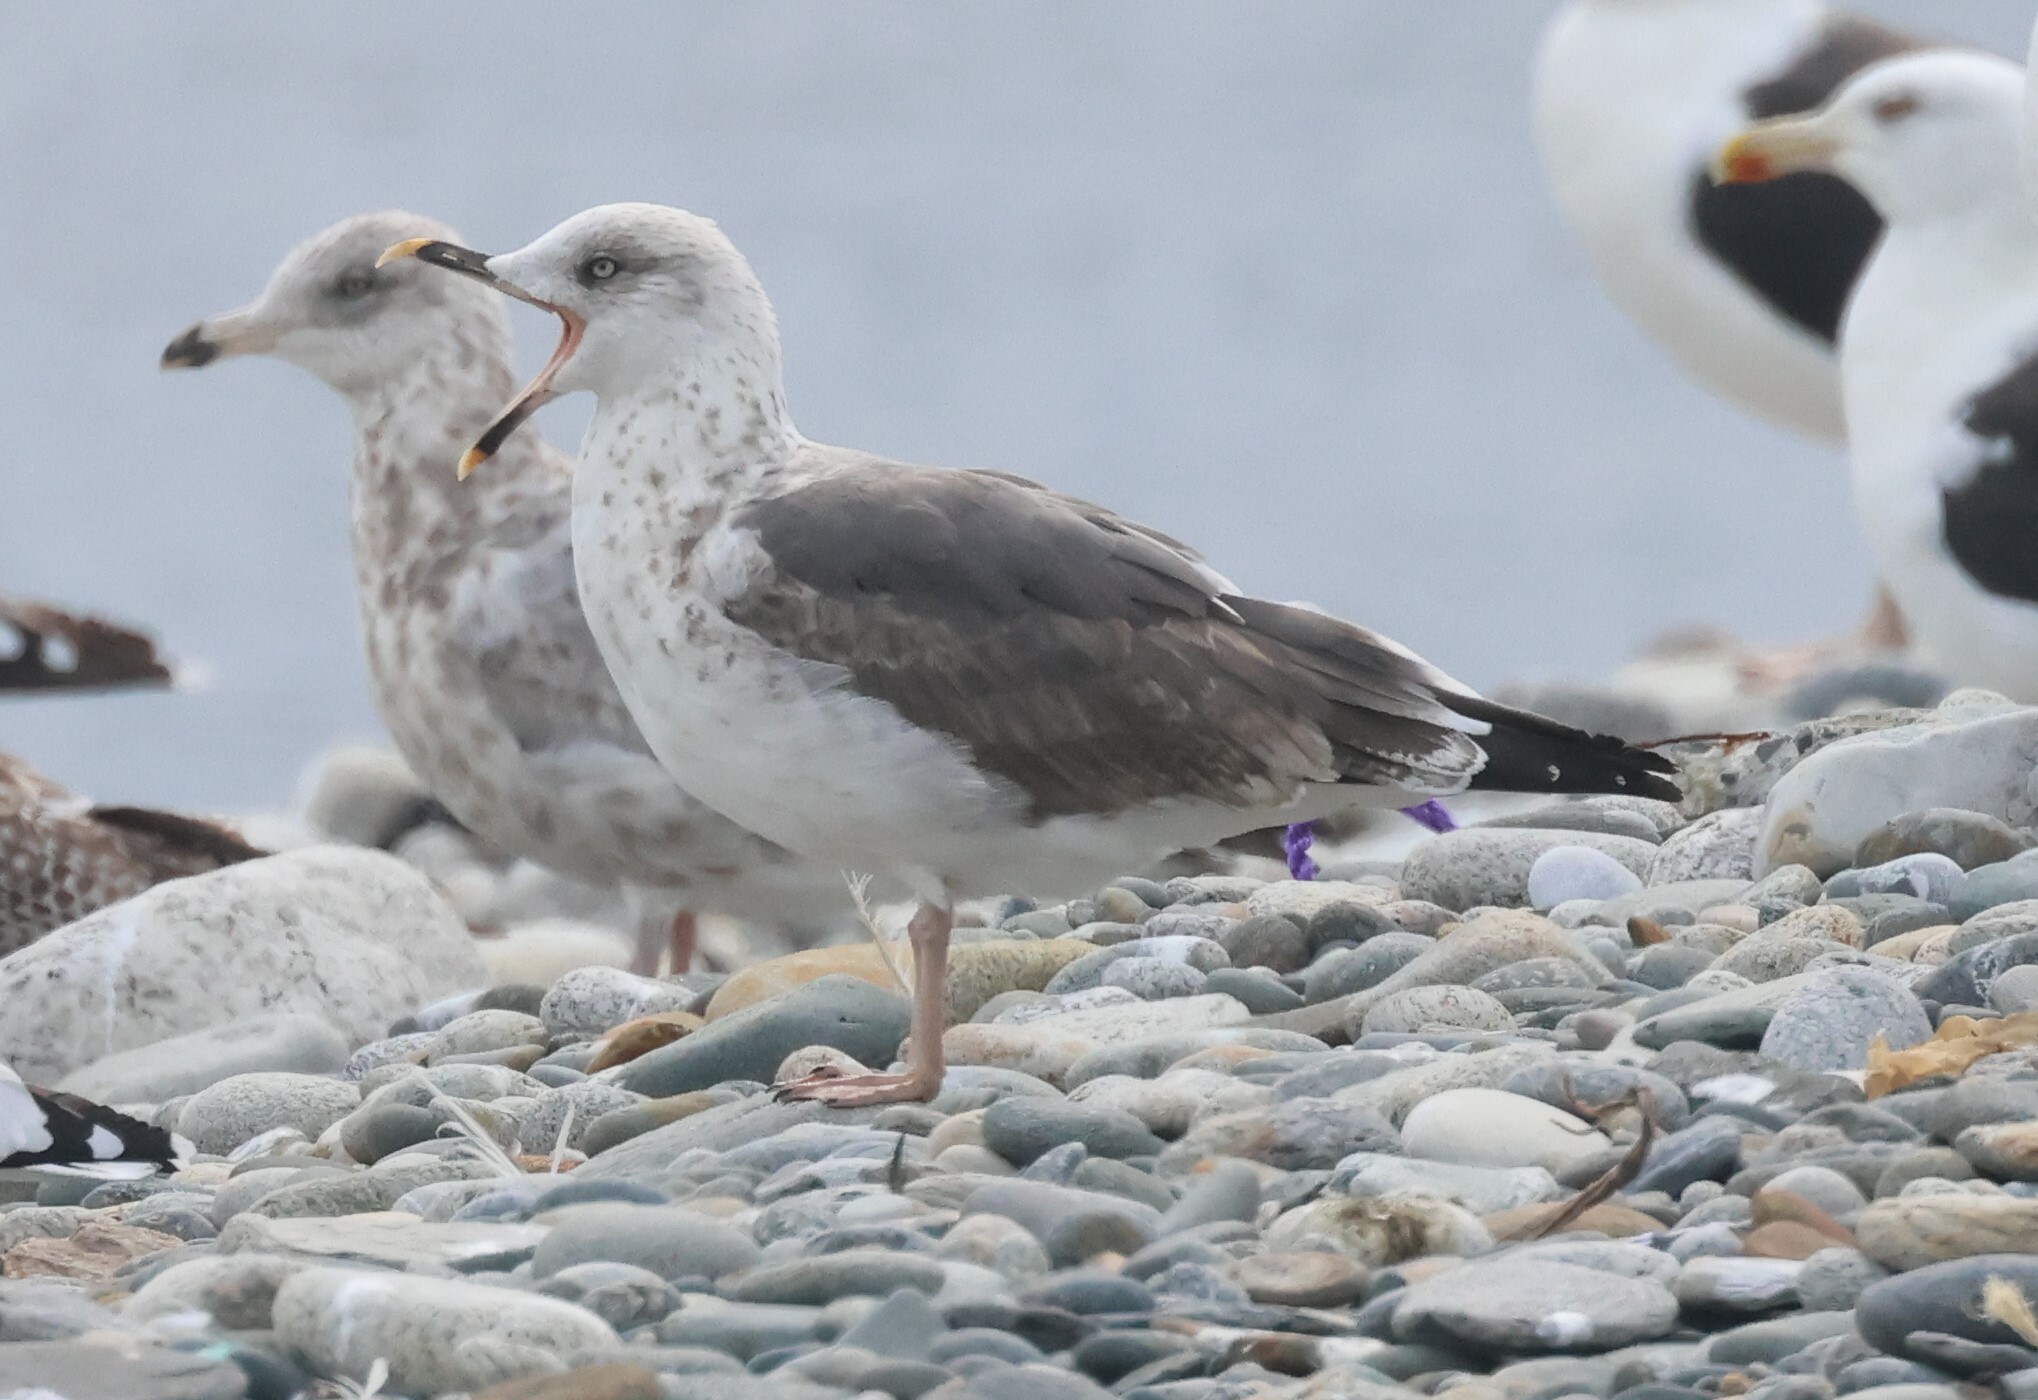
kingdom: Animalia
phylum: Chordata
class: Aves
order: Charadriiformes
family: Laridae
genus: Larus
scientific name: Larus fuscus
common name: Lesser black-backed gull
